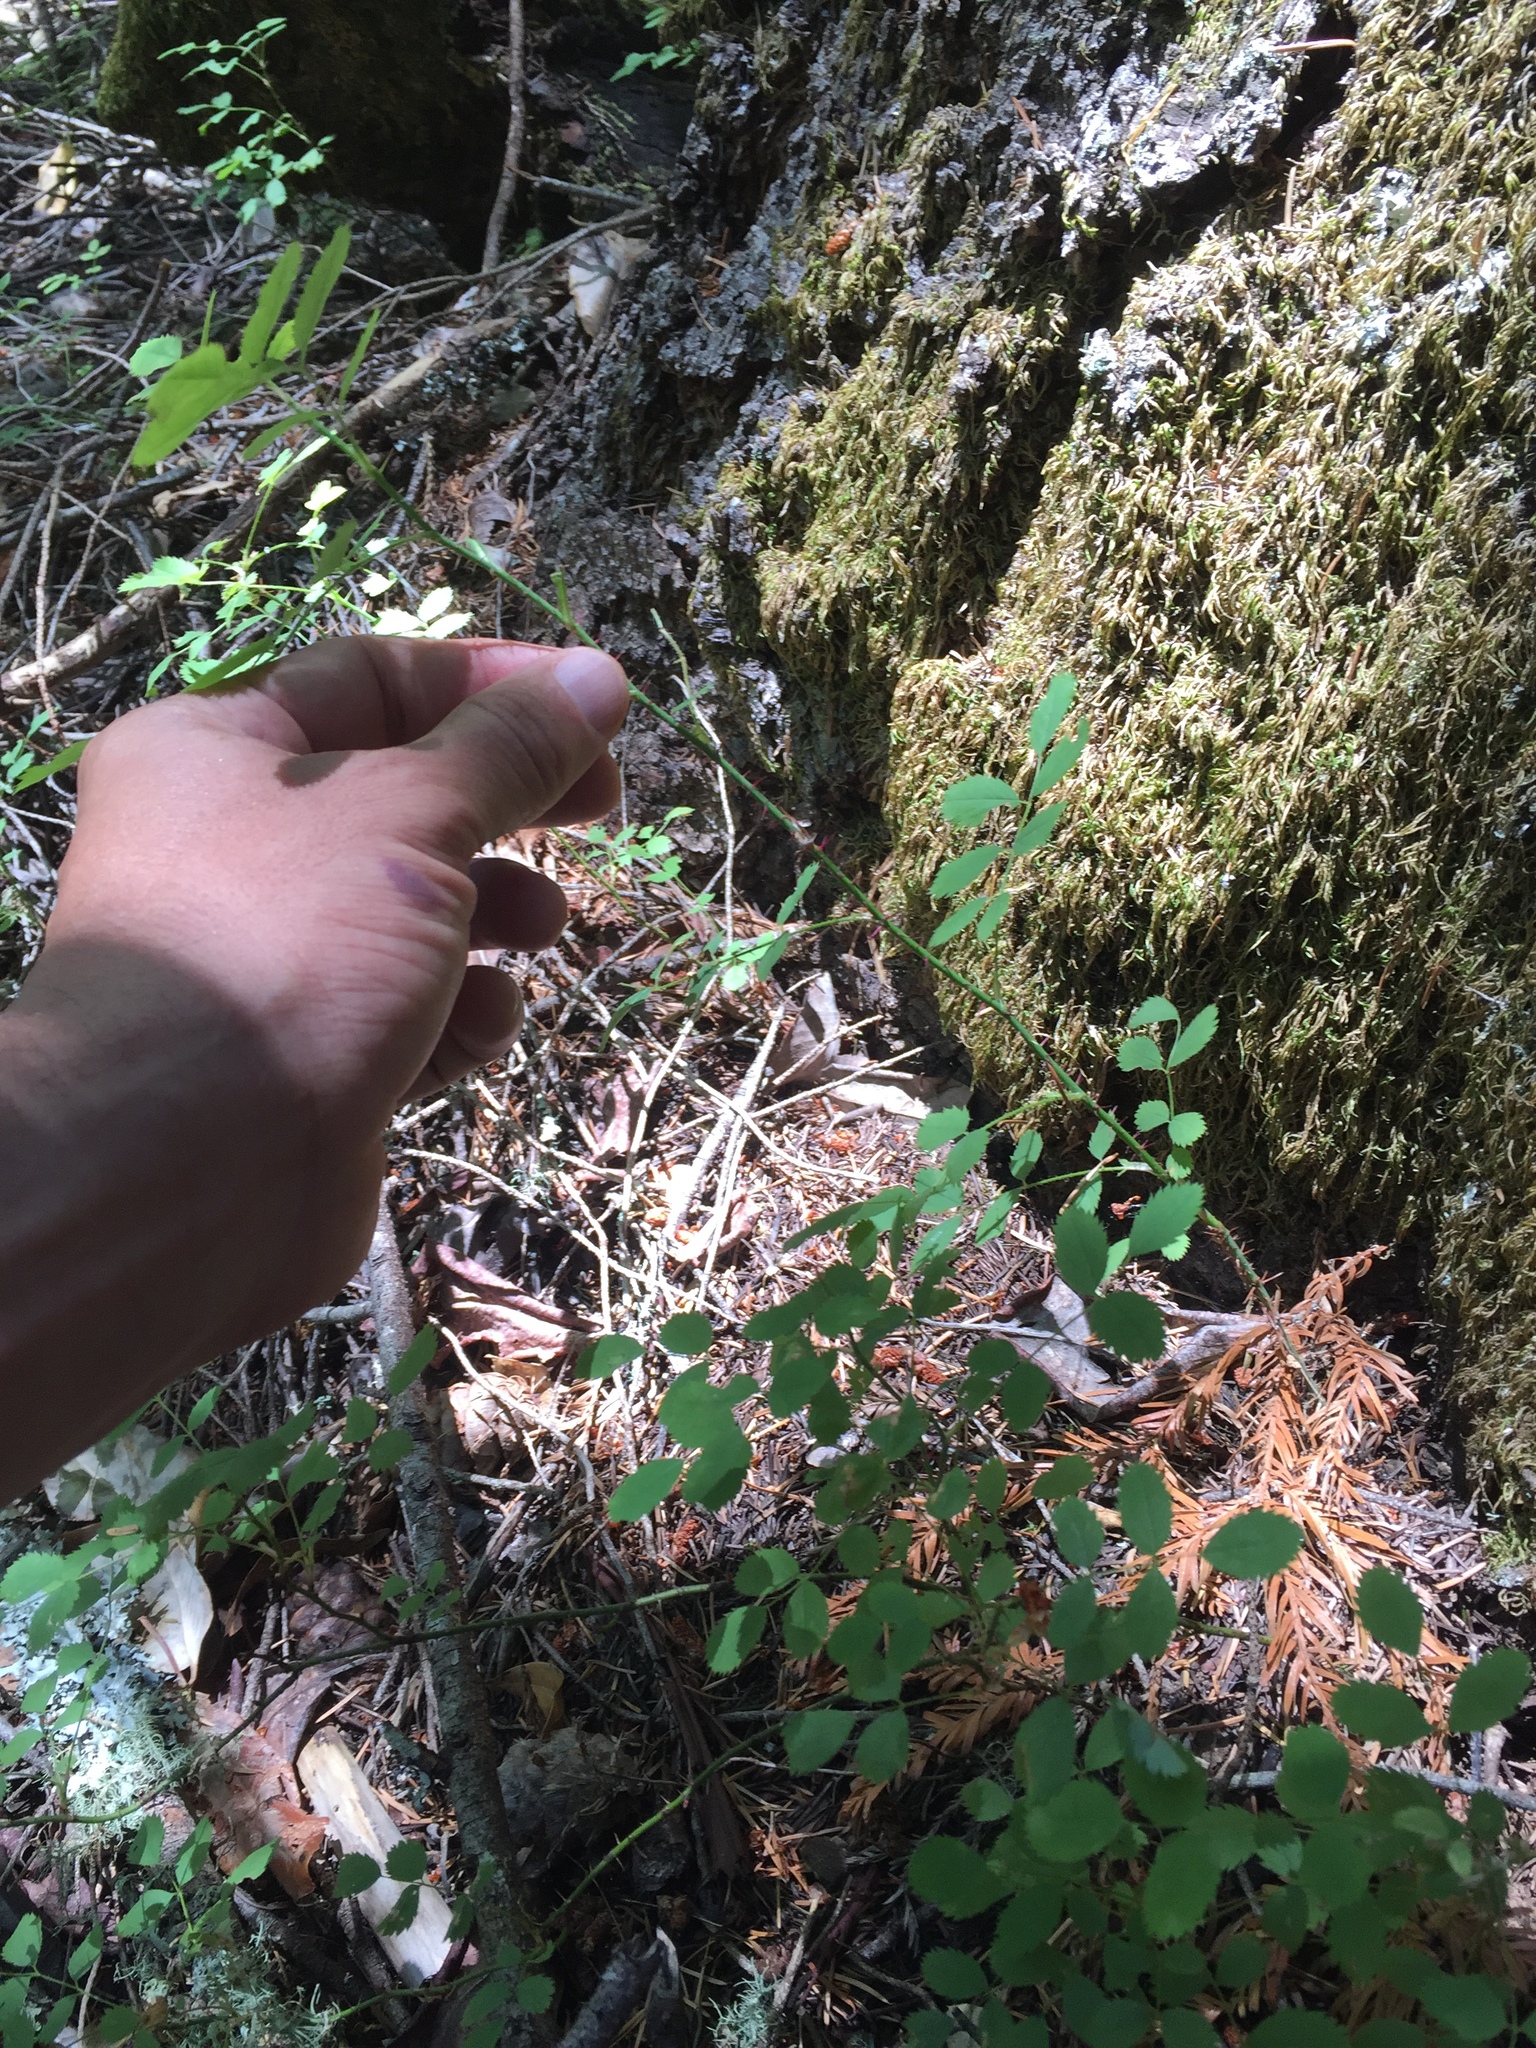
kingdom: Plantae
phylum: Tracheophyta
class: Magnoliopsida
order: Rosales
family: Rosaceae
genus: Rosa
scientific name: Rosa gymnocarpa
